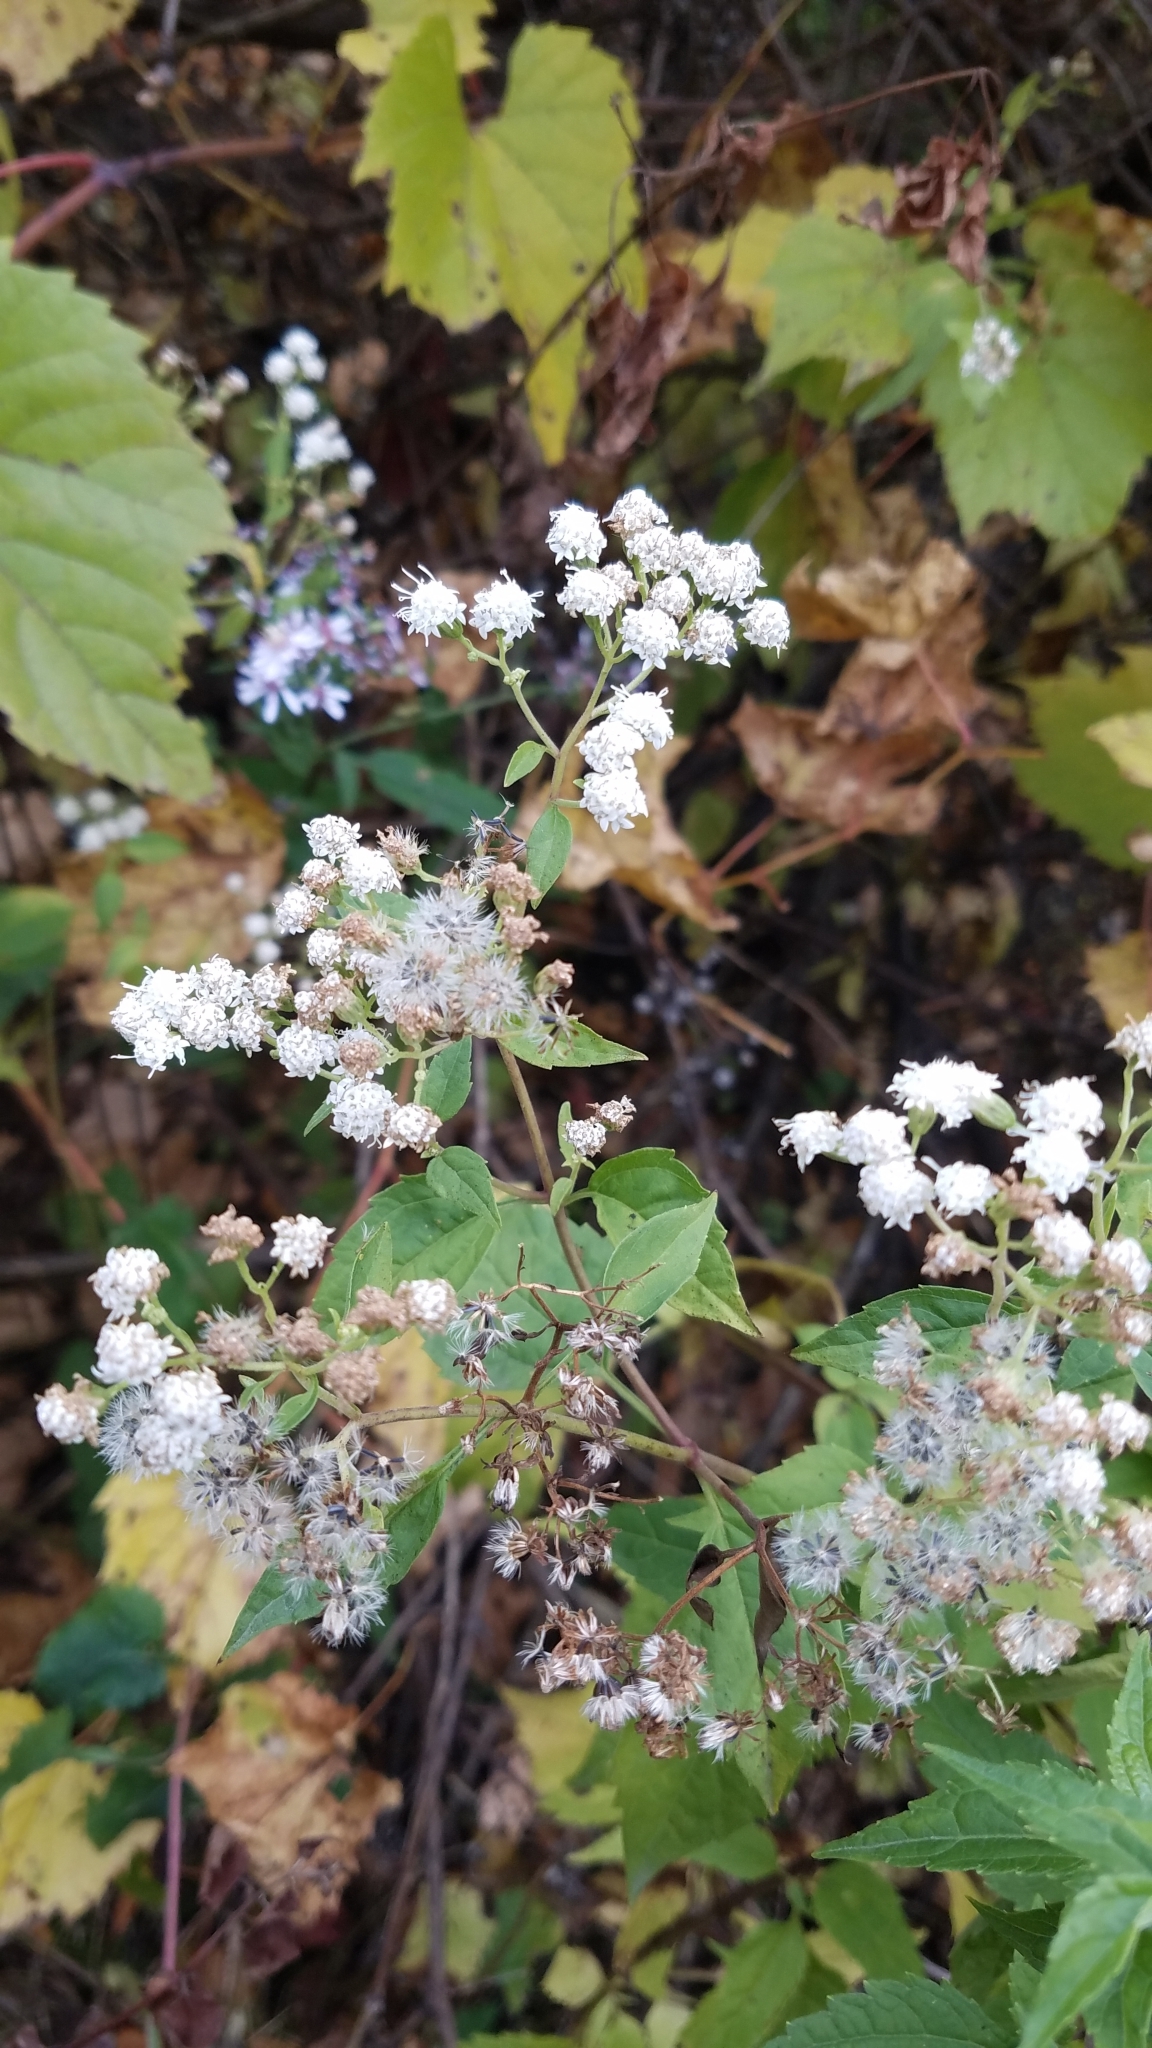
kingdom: Plantae
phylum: Tracheophyta
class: Magnoliopsida
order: Asterales
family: Asteraceae
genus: Ageratina
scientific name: Ageratina altissima
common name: White snakeroot
